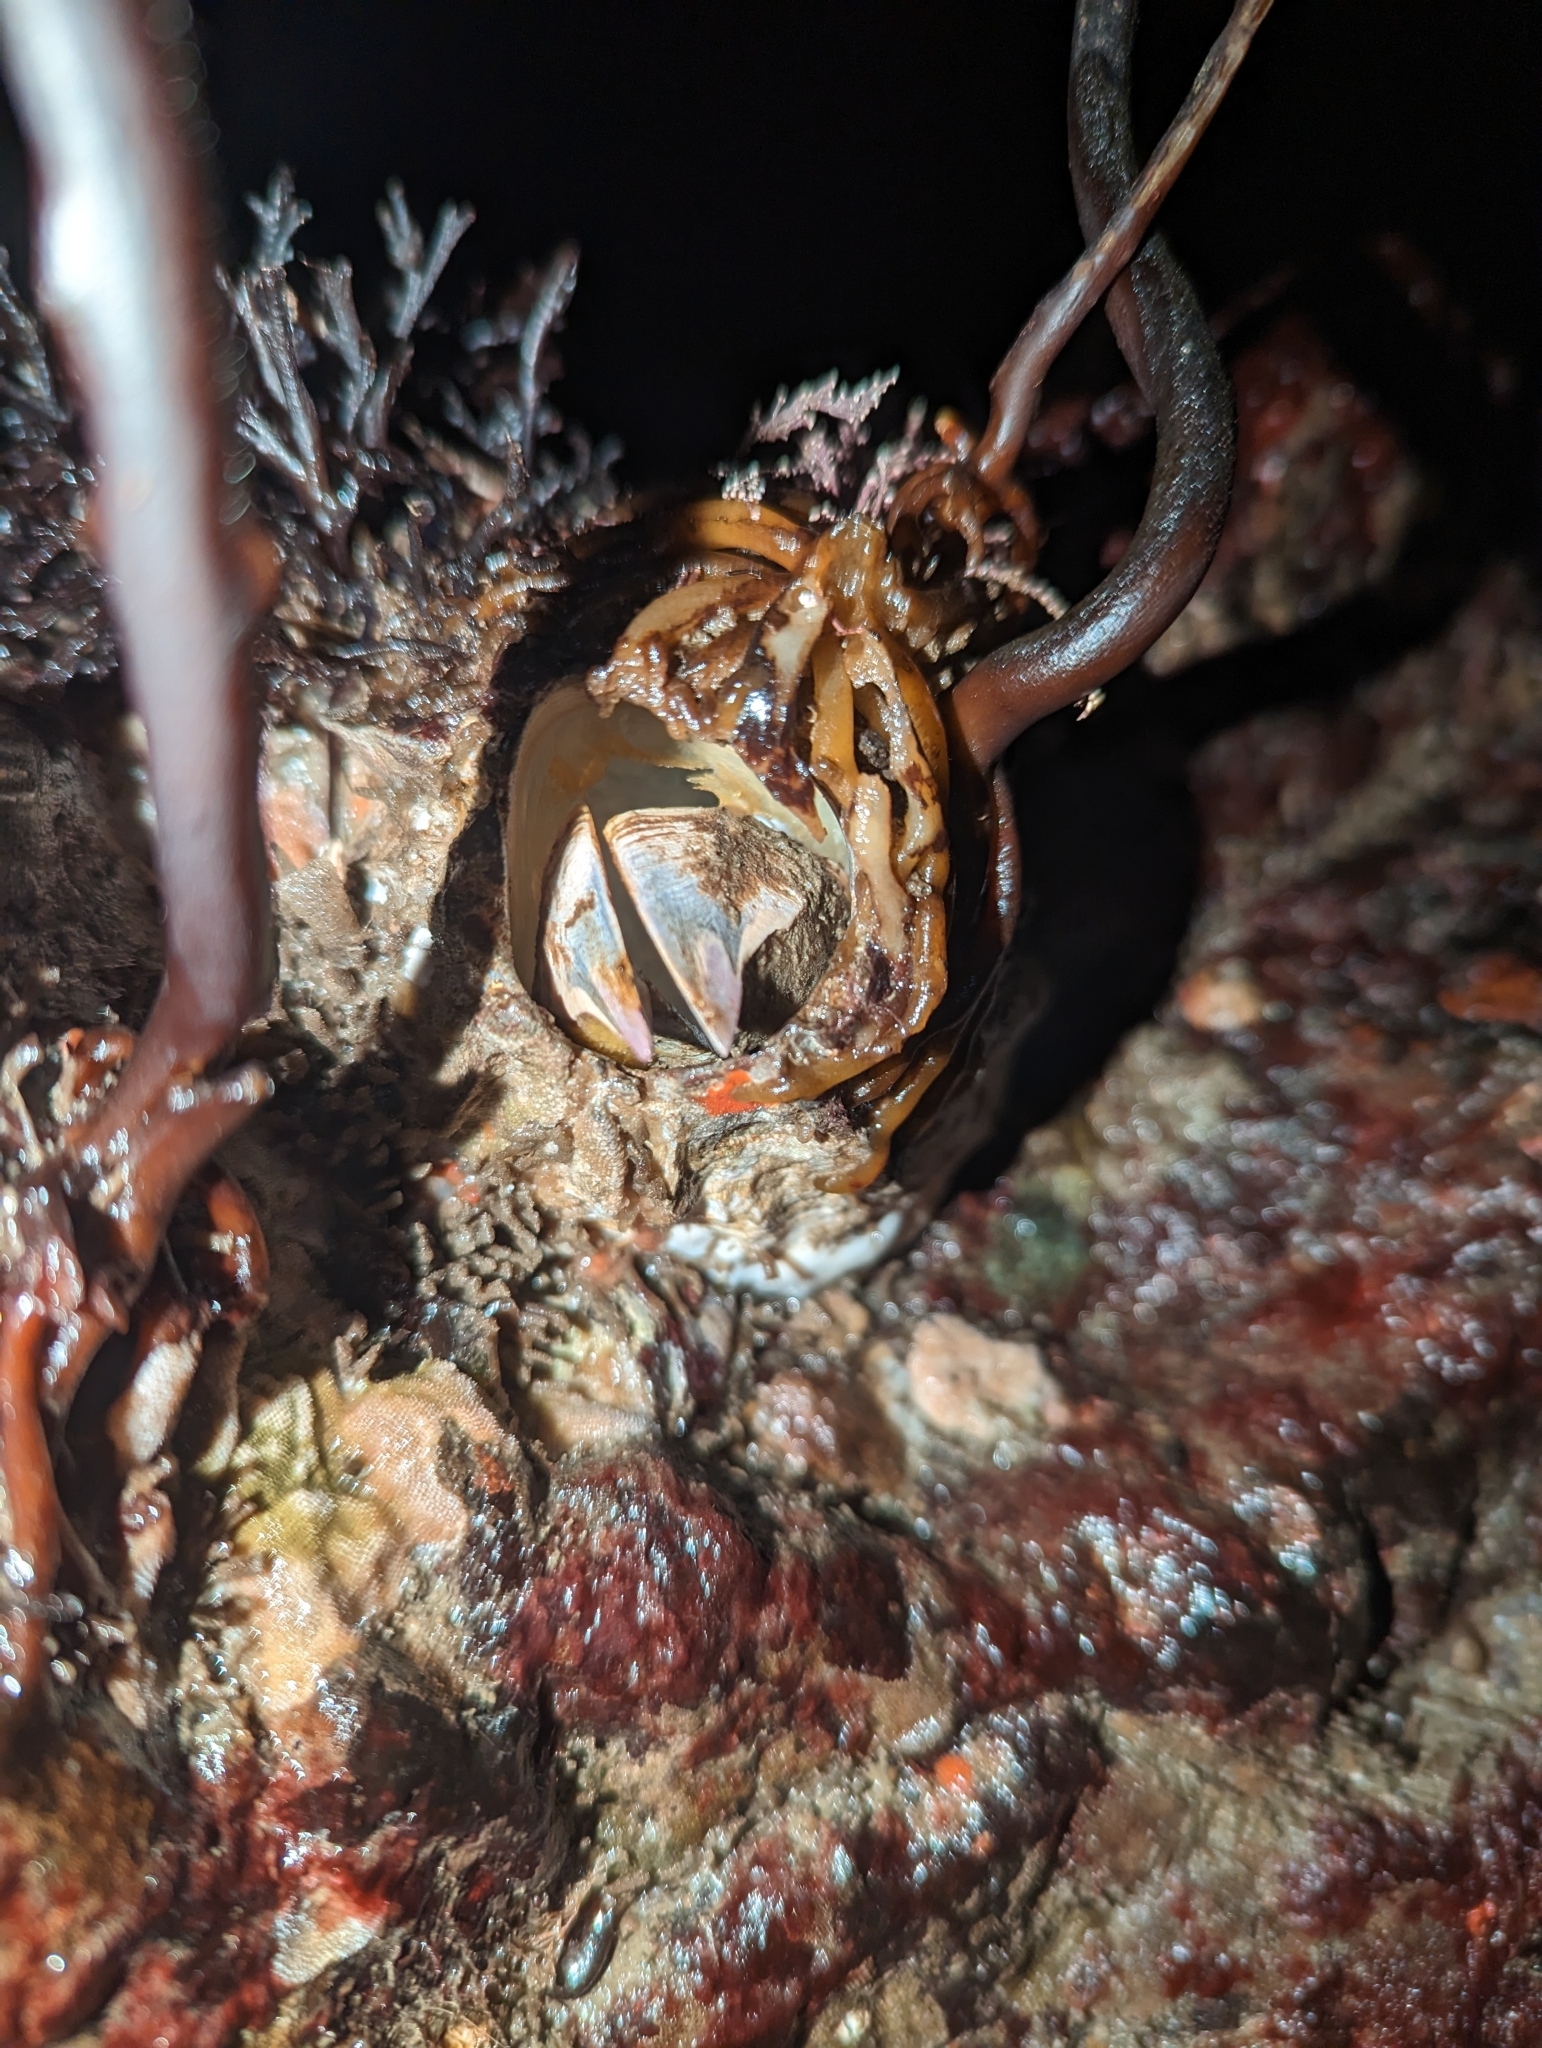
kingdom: Animalia
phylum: Arthropoda
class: Maxillopoda
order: Sessilia
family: Balanidae
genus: Balanus
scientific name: Balanus nubilus
